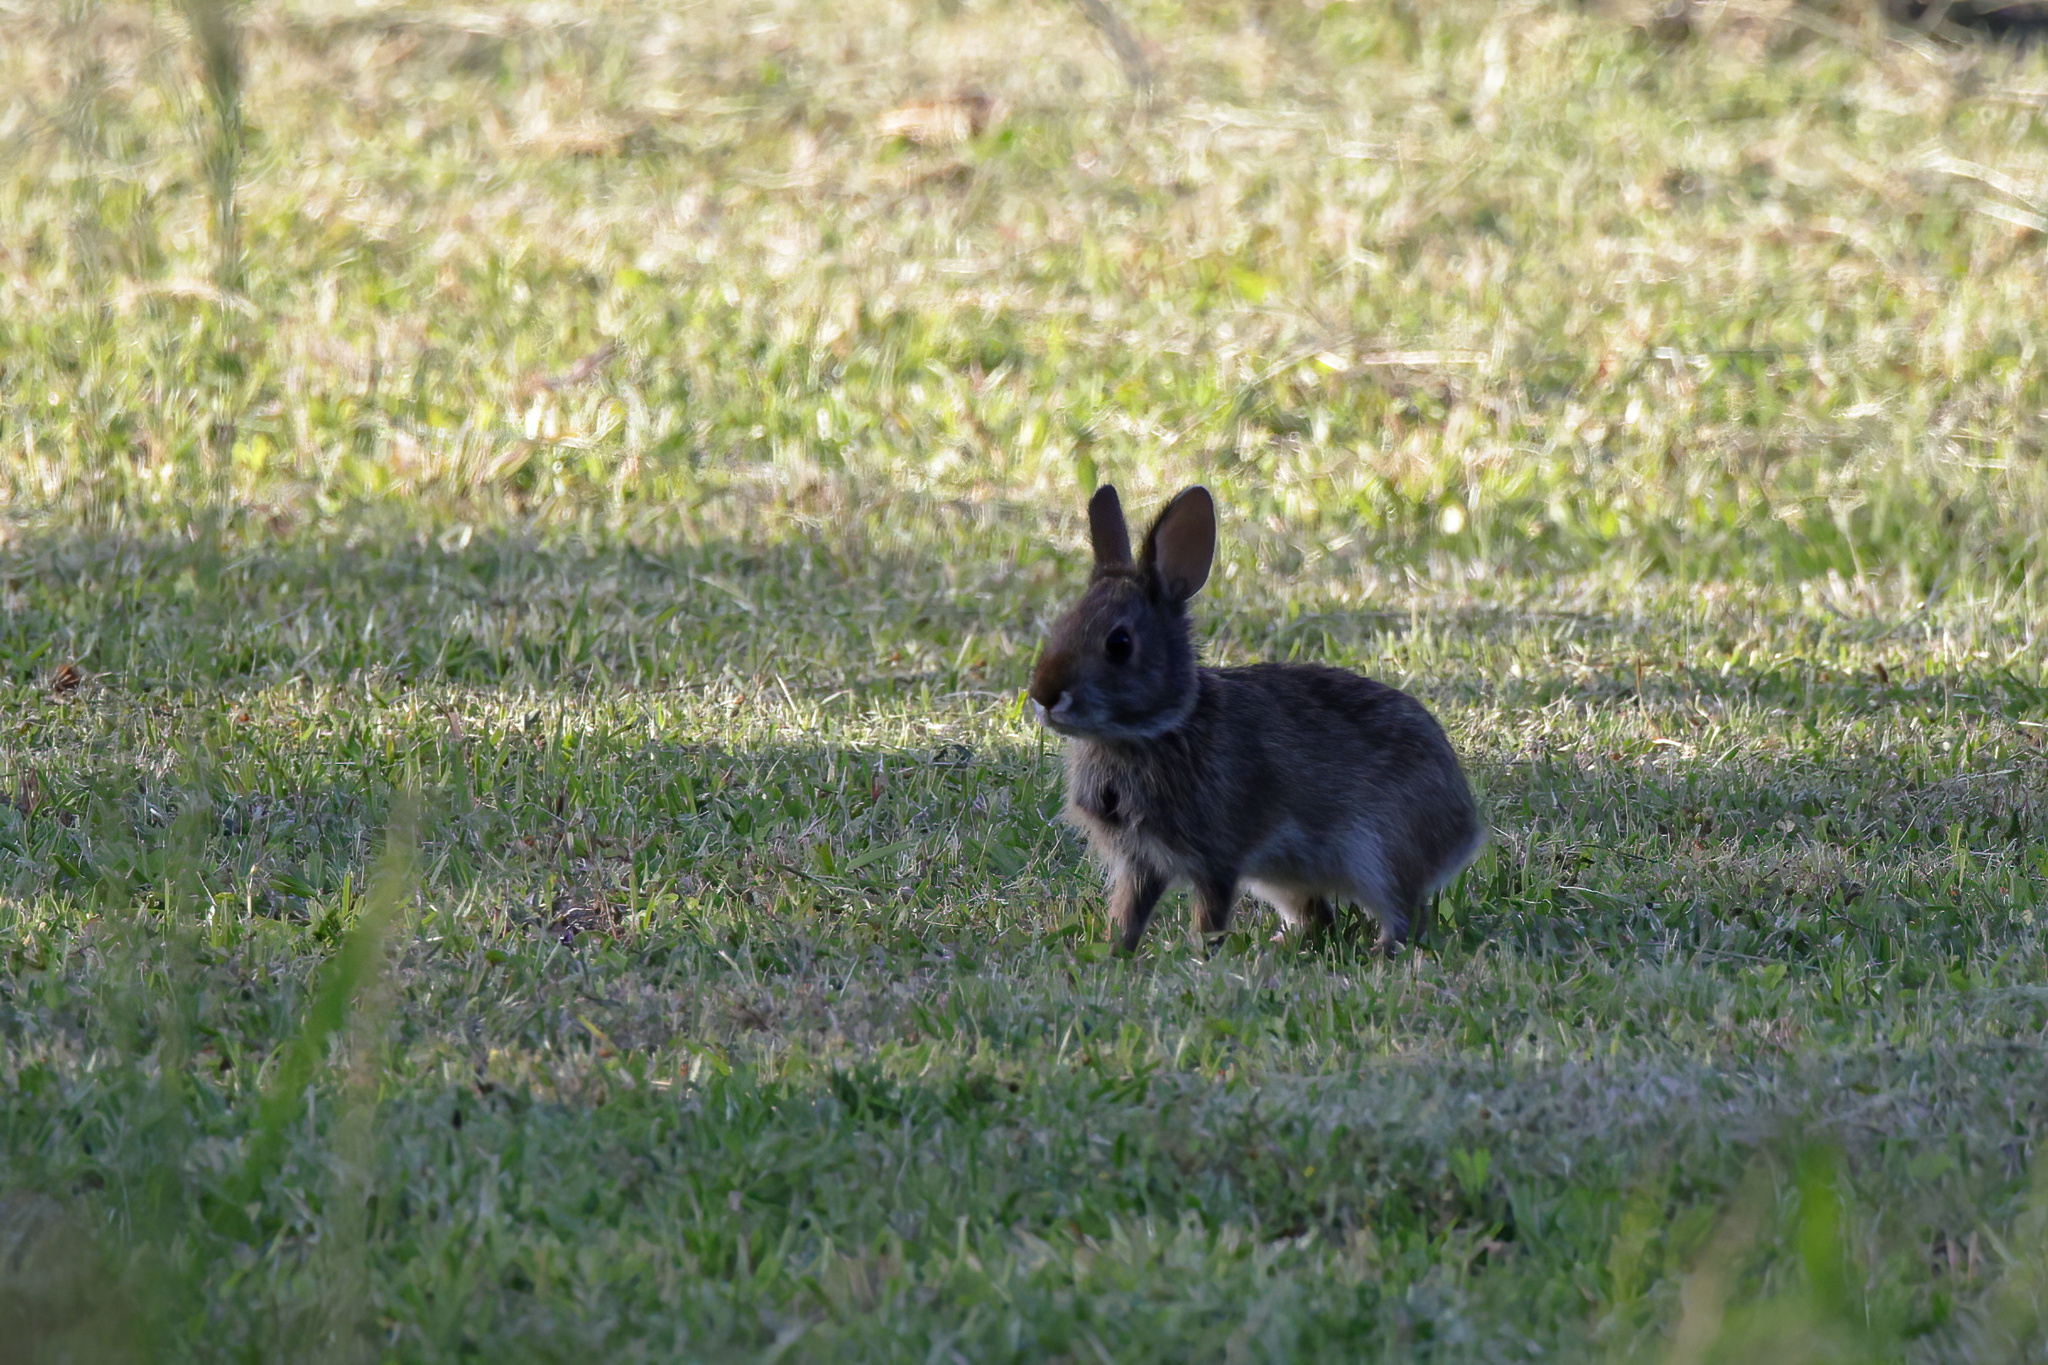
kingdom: Animalia
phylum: Chordata
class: Mammalia
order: Lagomorpha
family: Leporidae
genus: Sylvilagus
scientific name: Sylvilagus aquaticus
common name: Swamp rabbit
